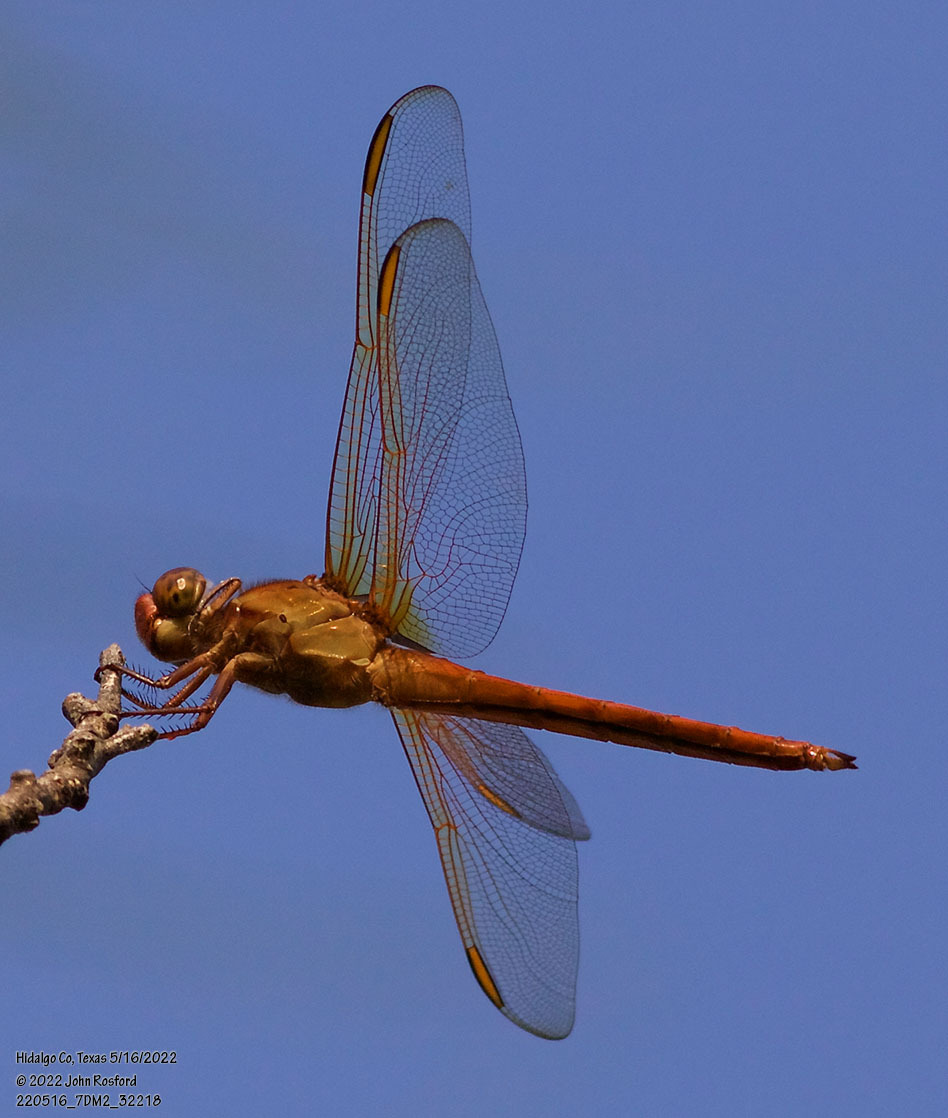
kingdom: Animalia
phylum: Arthropoda
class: Insecta
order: Odonata
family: Libellulidae
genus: Libellula
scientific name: Libellula needhami
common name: Needham's skimmer
